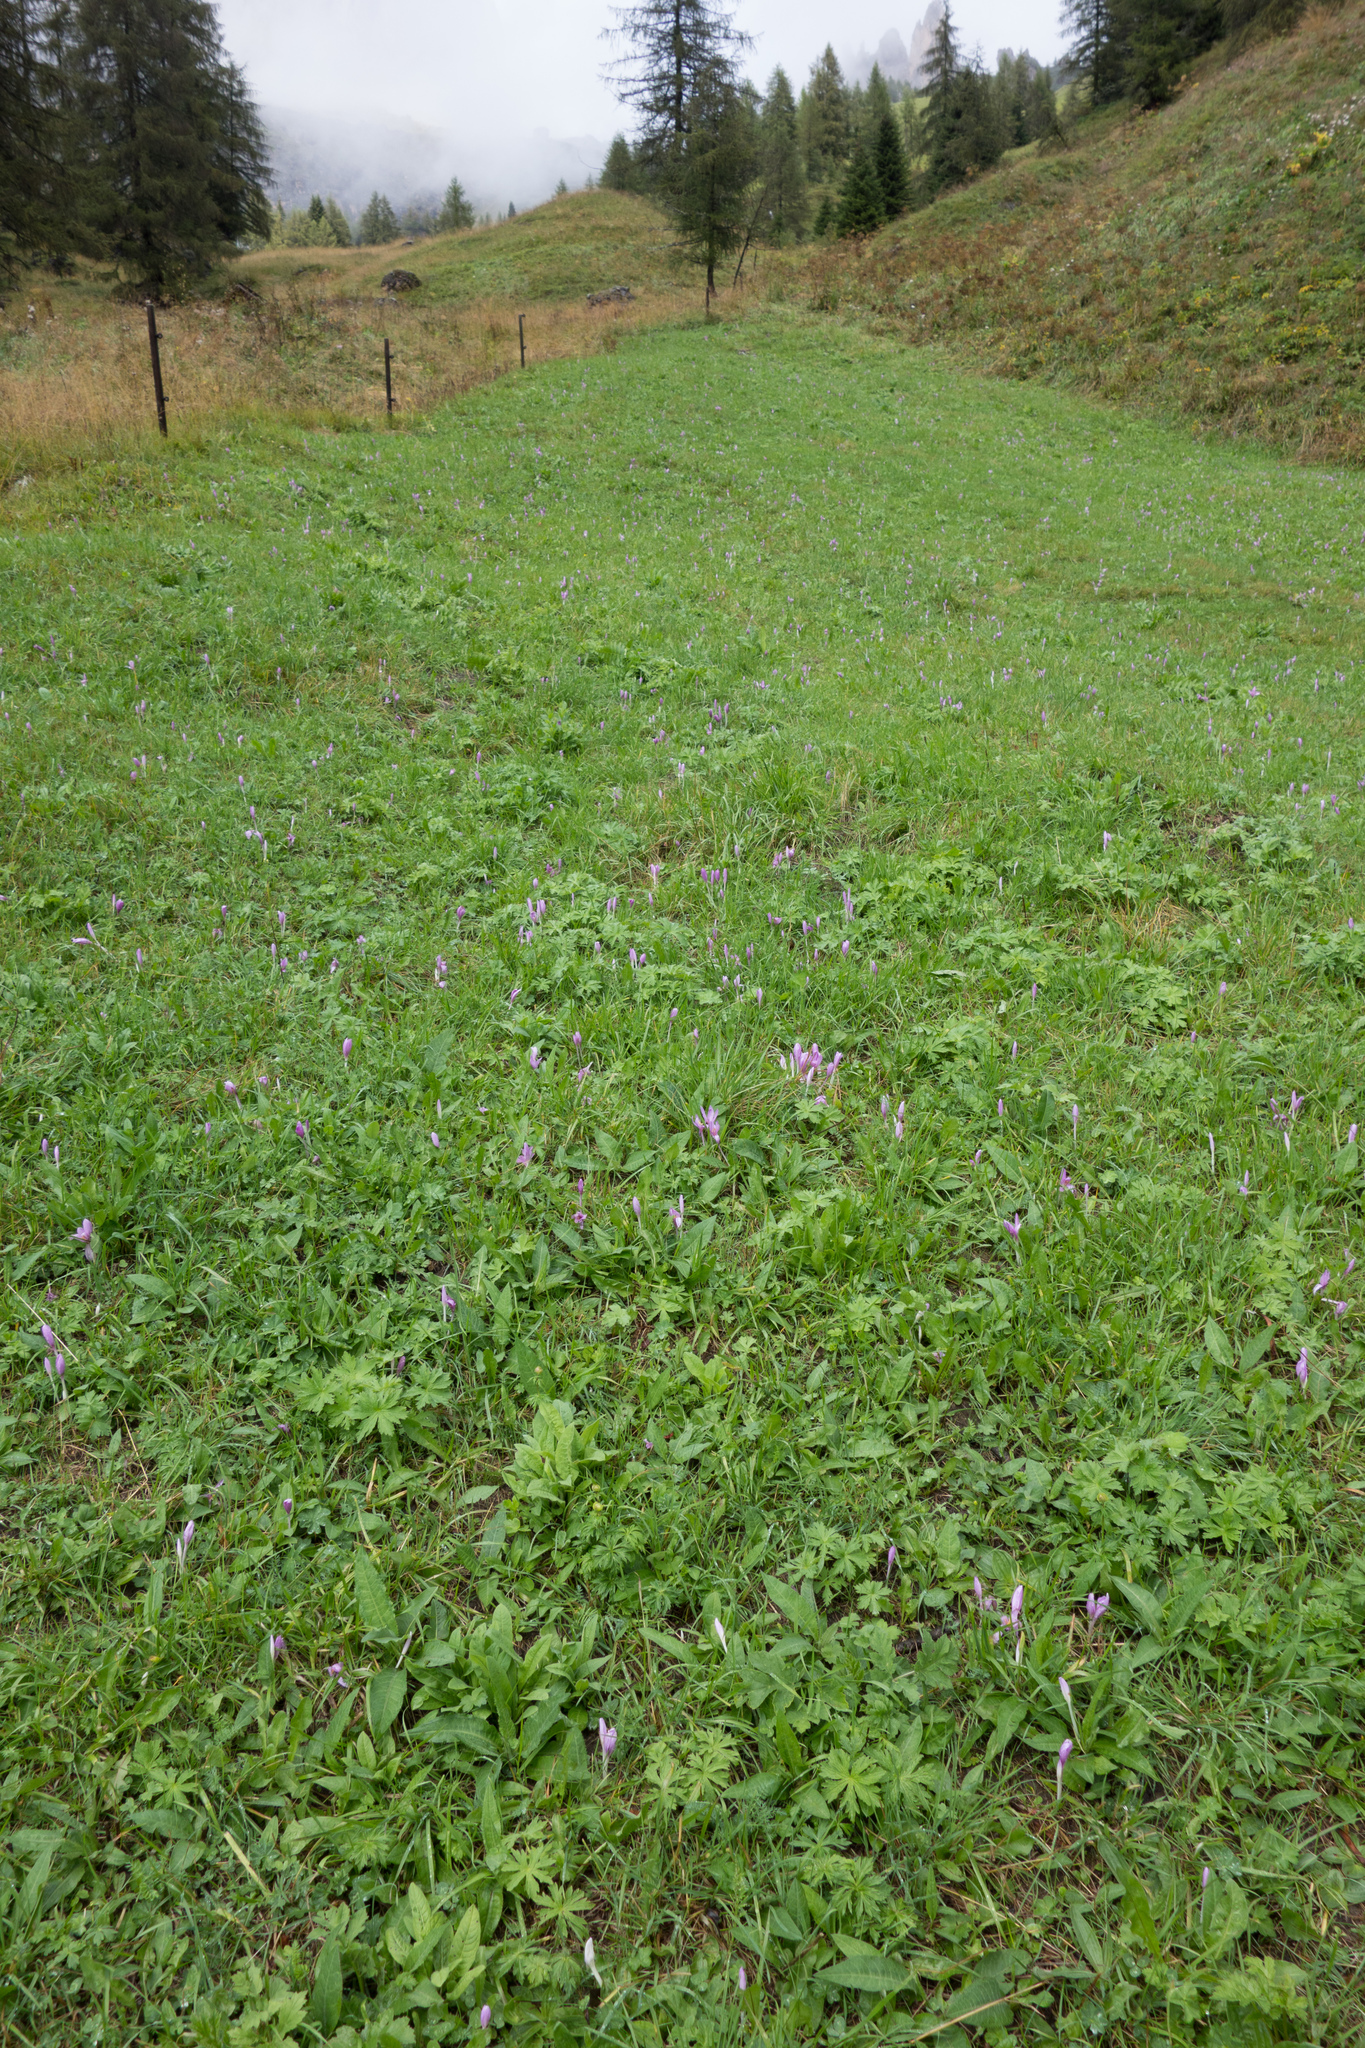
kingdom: Plantae
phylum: Tracheophyta
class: Liliopsida
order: Liliales
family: Colchicaceae
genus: Colchicum
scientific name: Colchicum autumnale
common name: Autumn crocus
